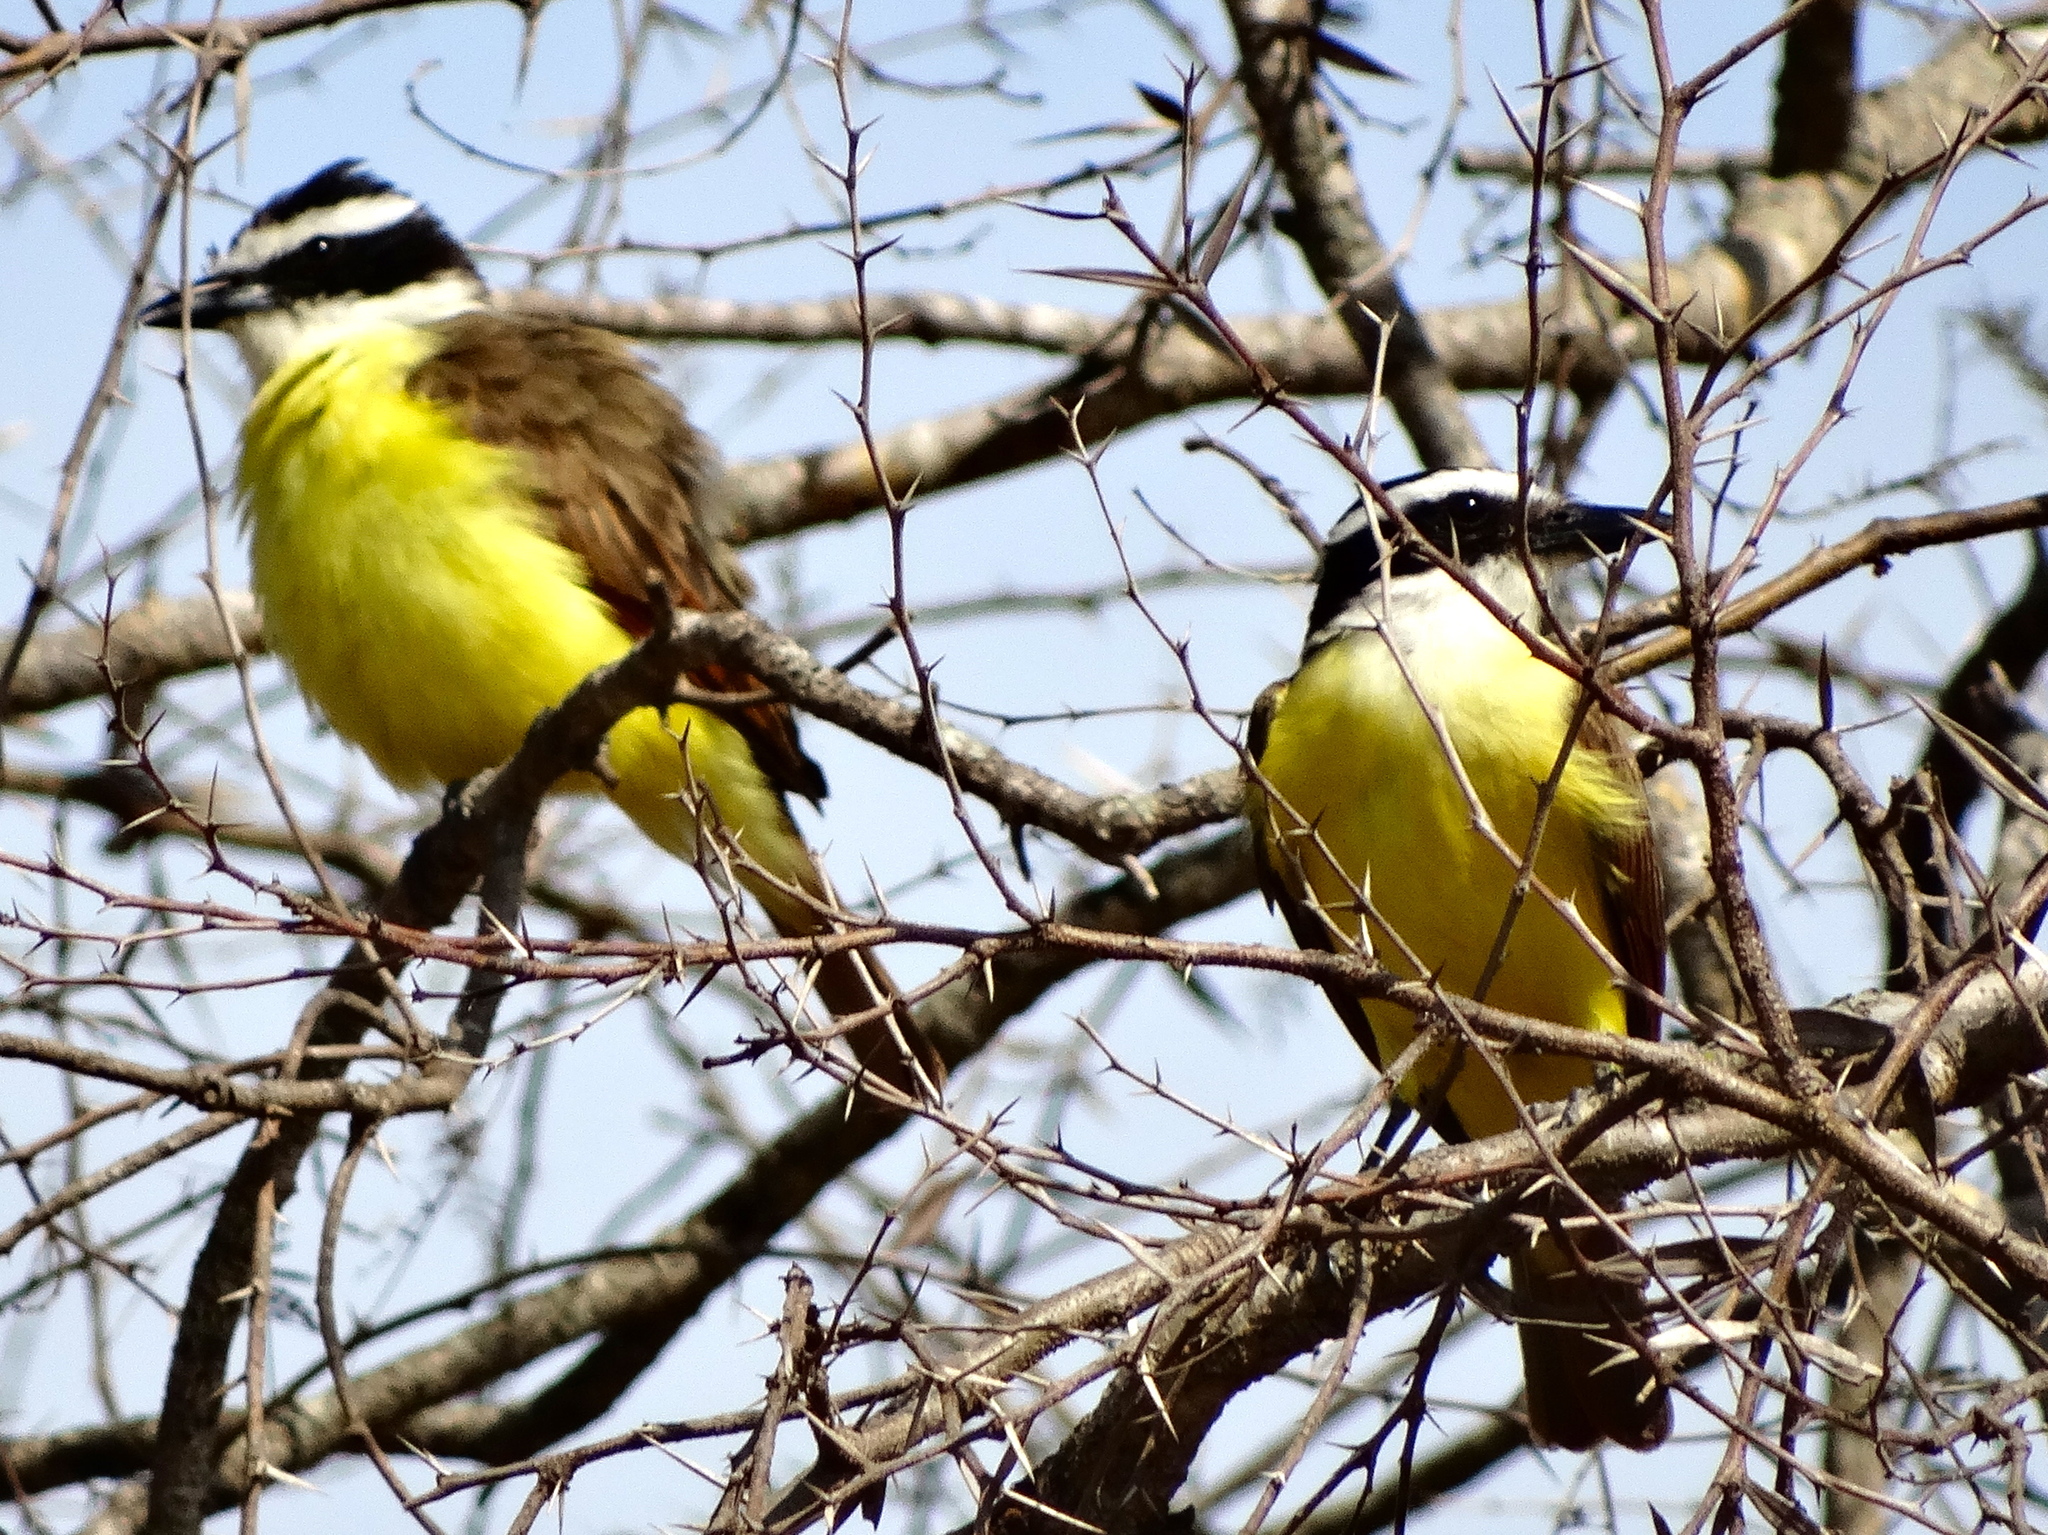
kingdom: Animalia
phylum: Chordata
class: Aves
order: Passeriformes
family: Tyrannidae
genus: Pitangus
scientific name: Pitangus sulphuratus
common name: Great kiskadee
